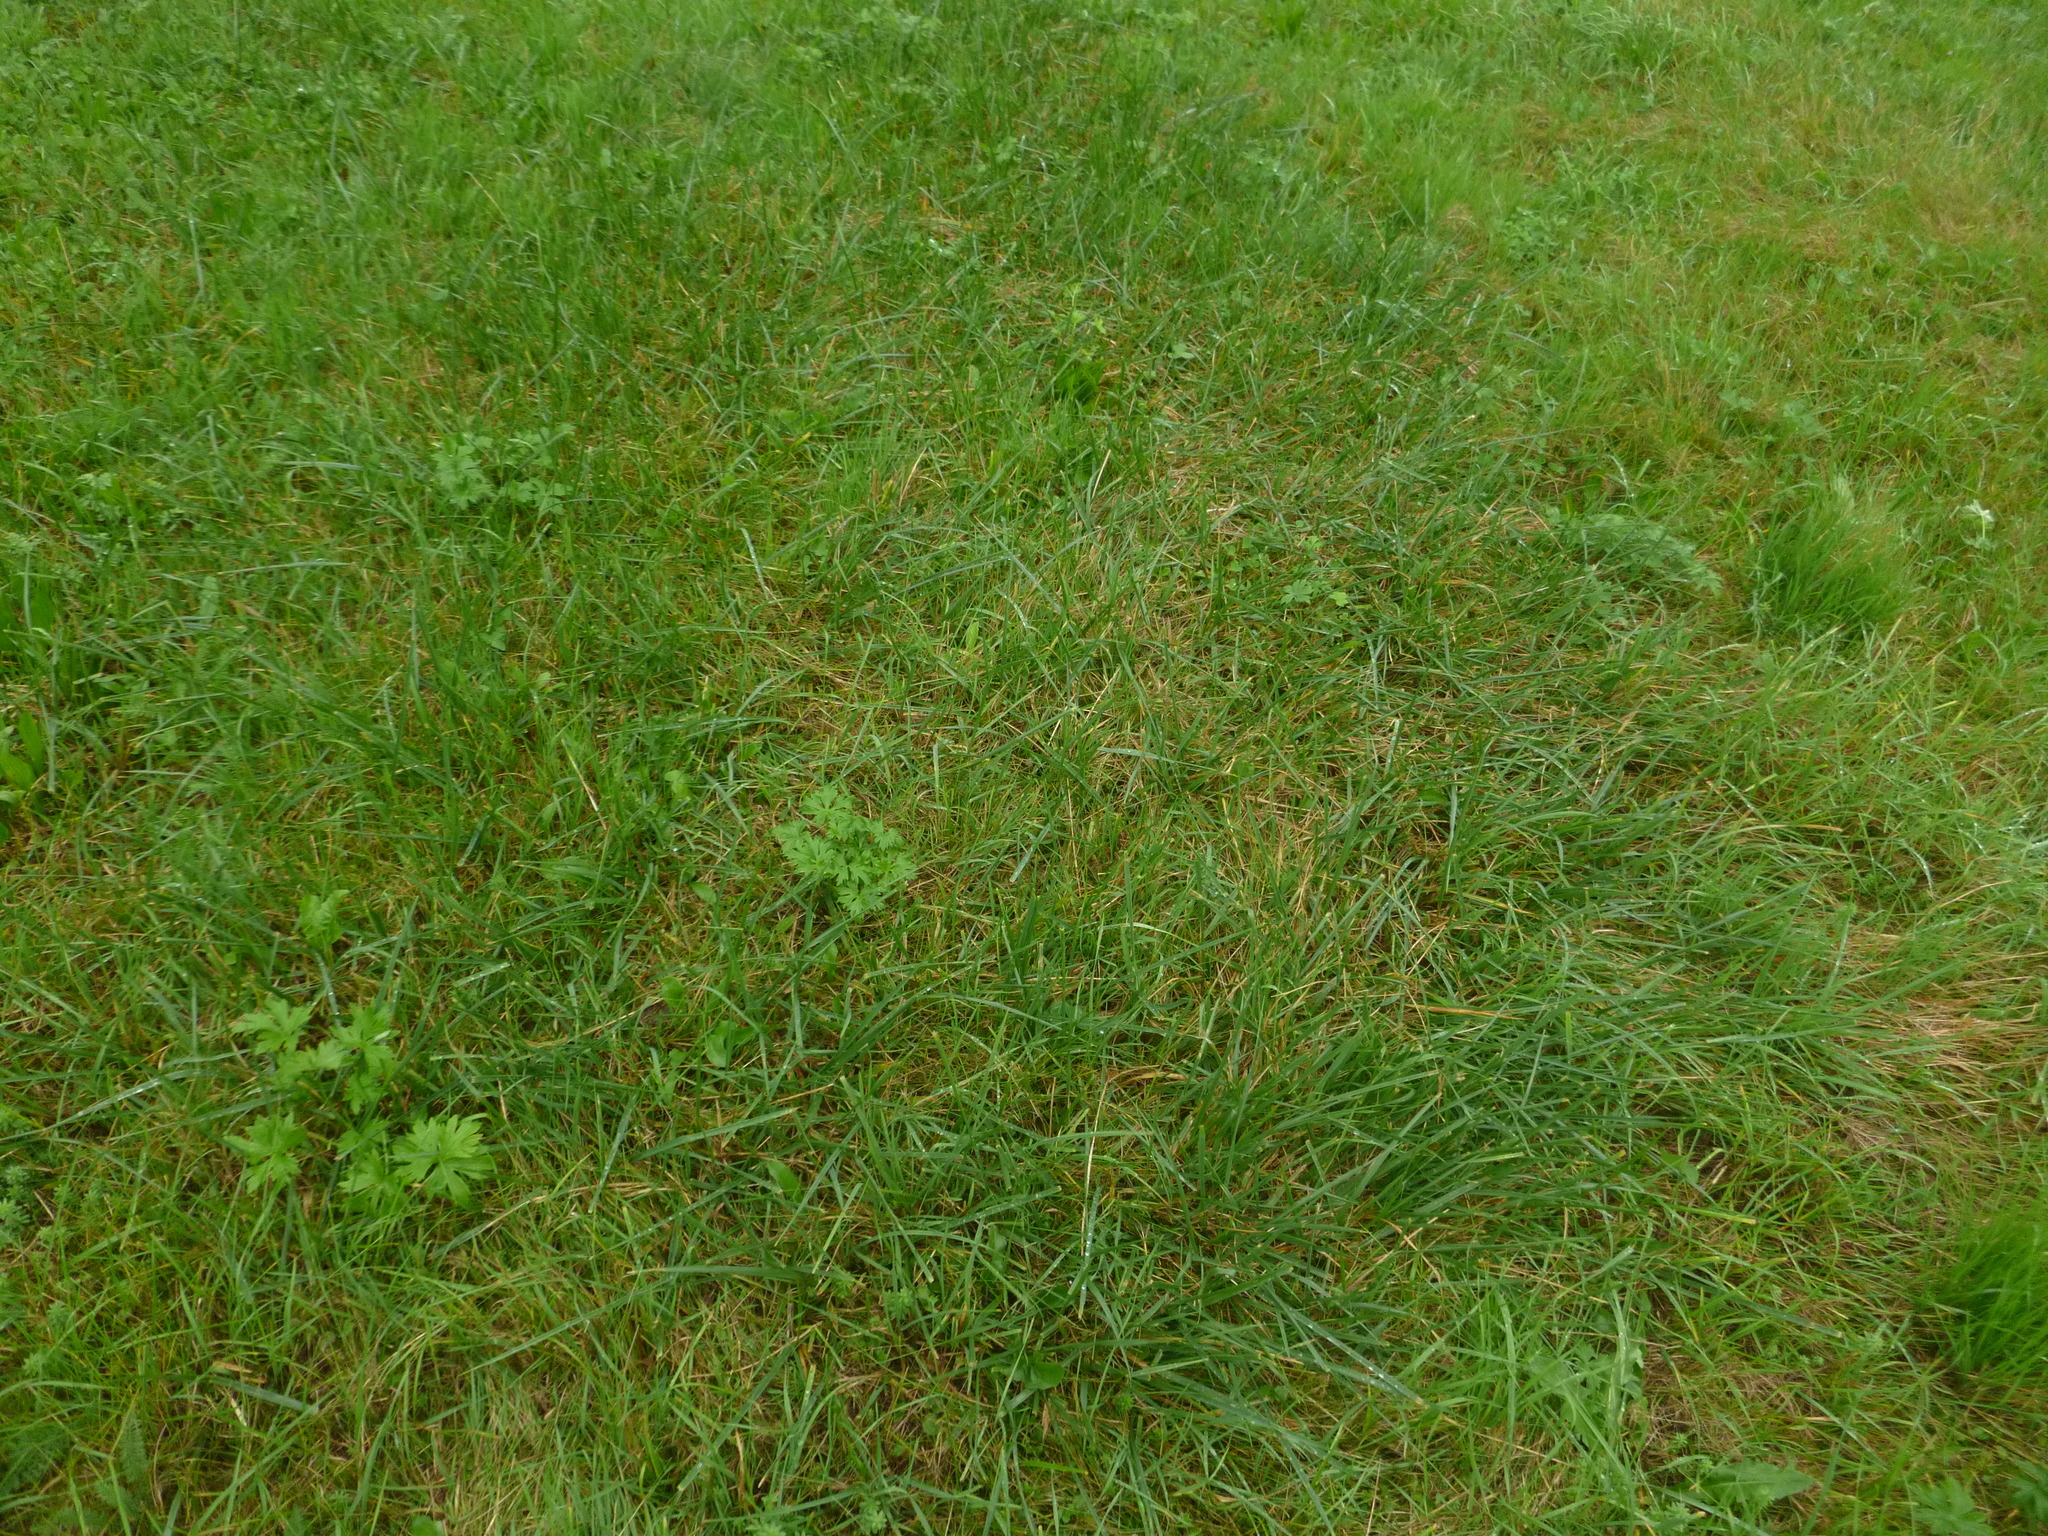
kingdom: Plantae
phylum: Tracheophyta
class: Liliopsida
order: Poales
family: Poaceae
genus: Lolium
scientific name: Lolium arundinaceum
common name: Reed fescue
